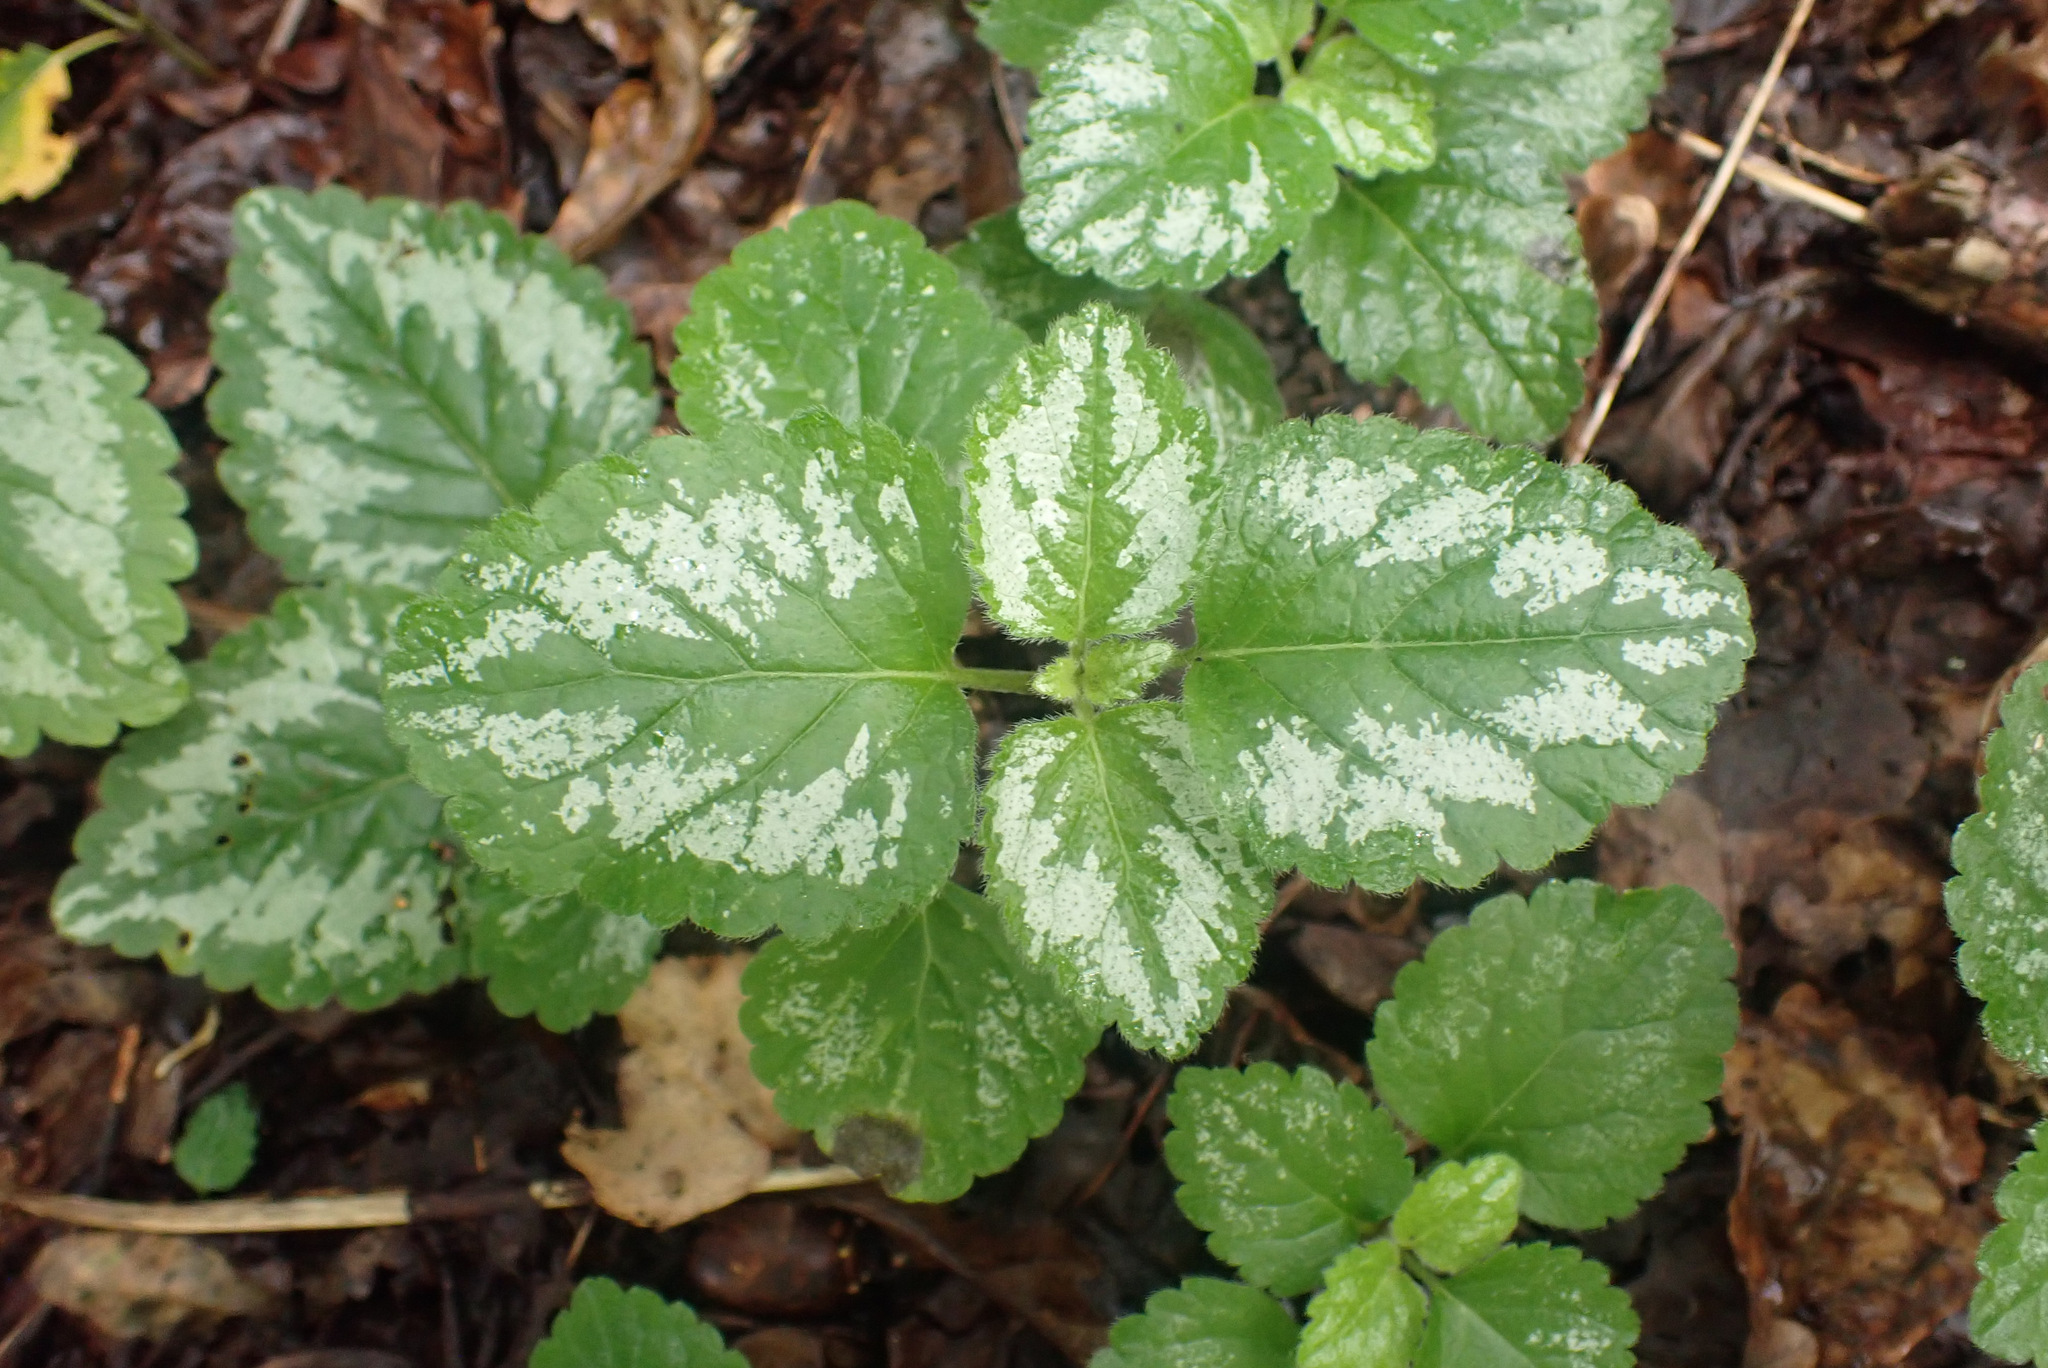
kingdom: Plantae
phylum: Tracheophyta
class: Magnoliopsida
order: Lamiales
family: Lamiaceae
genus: Lamium
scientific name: Lamium galeobdolon
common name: Yellow archangel
